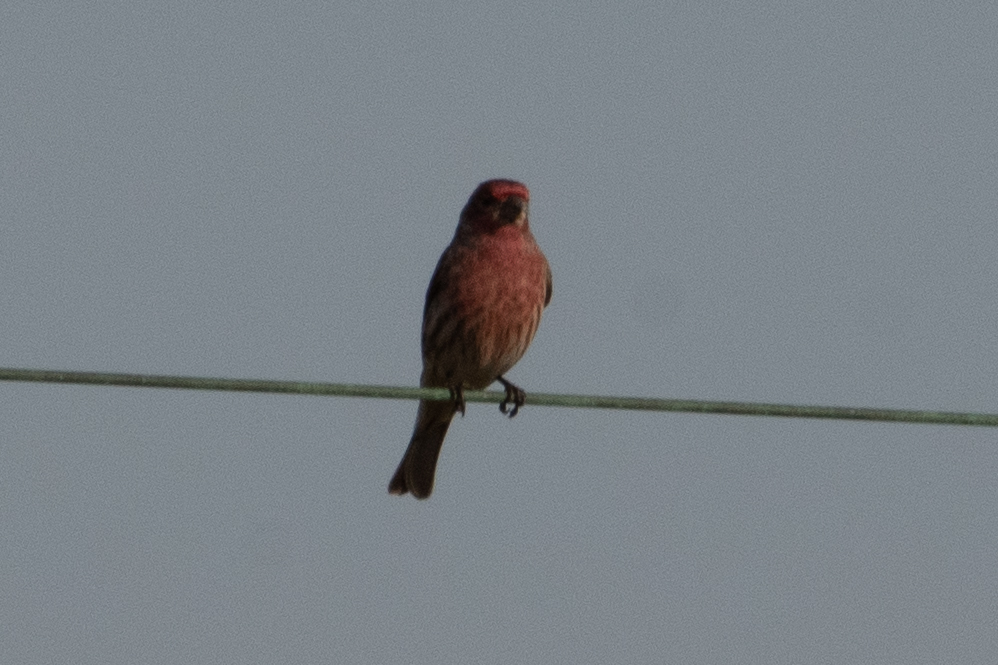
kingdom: Animalia
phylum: Chordata
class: Aves
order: Passeriformes
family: Fringillidae
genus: Haemorhous
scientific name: Haemorhous mexicanus
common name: House finch
